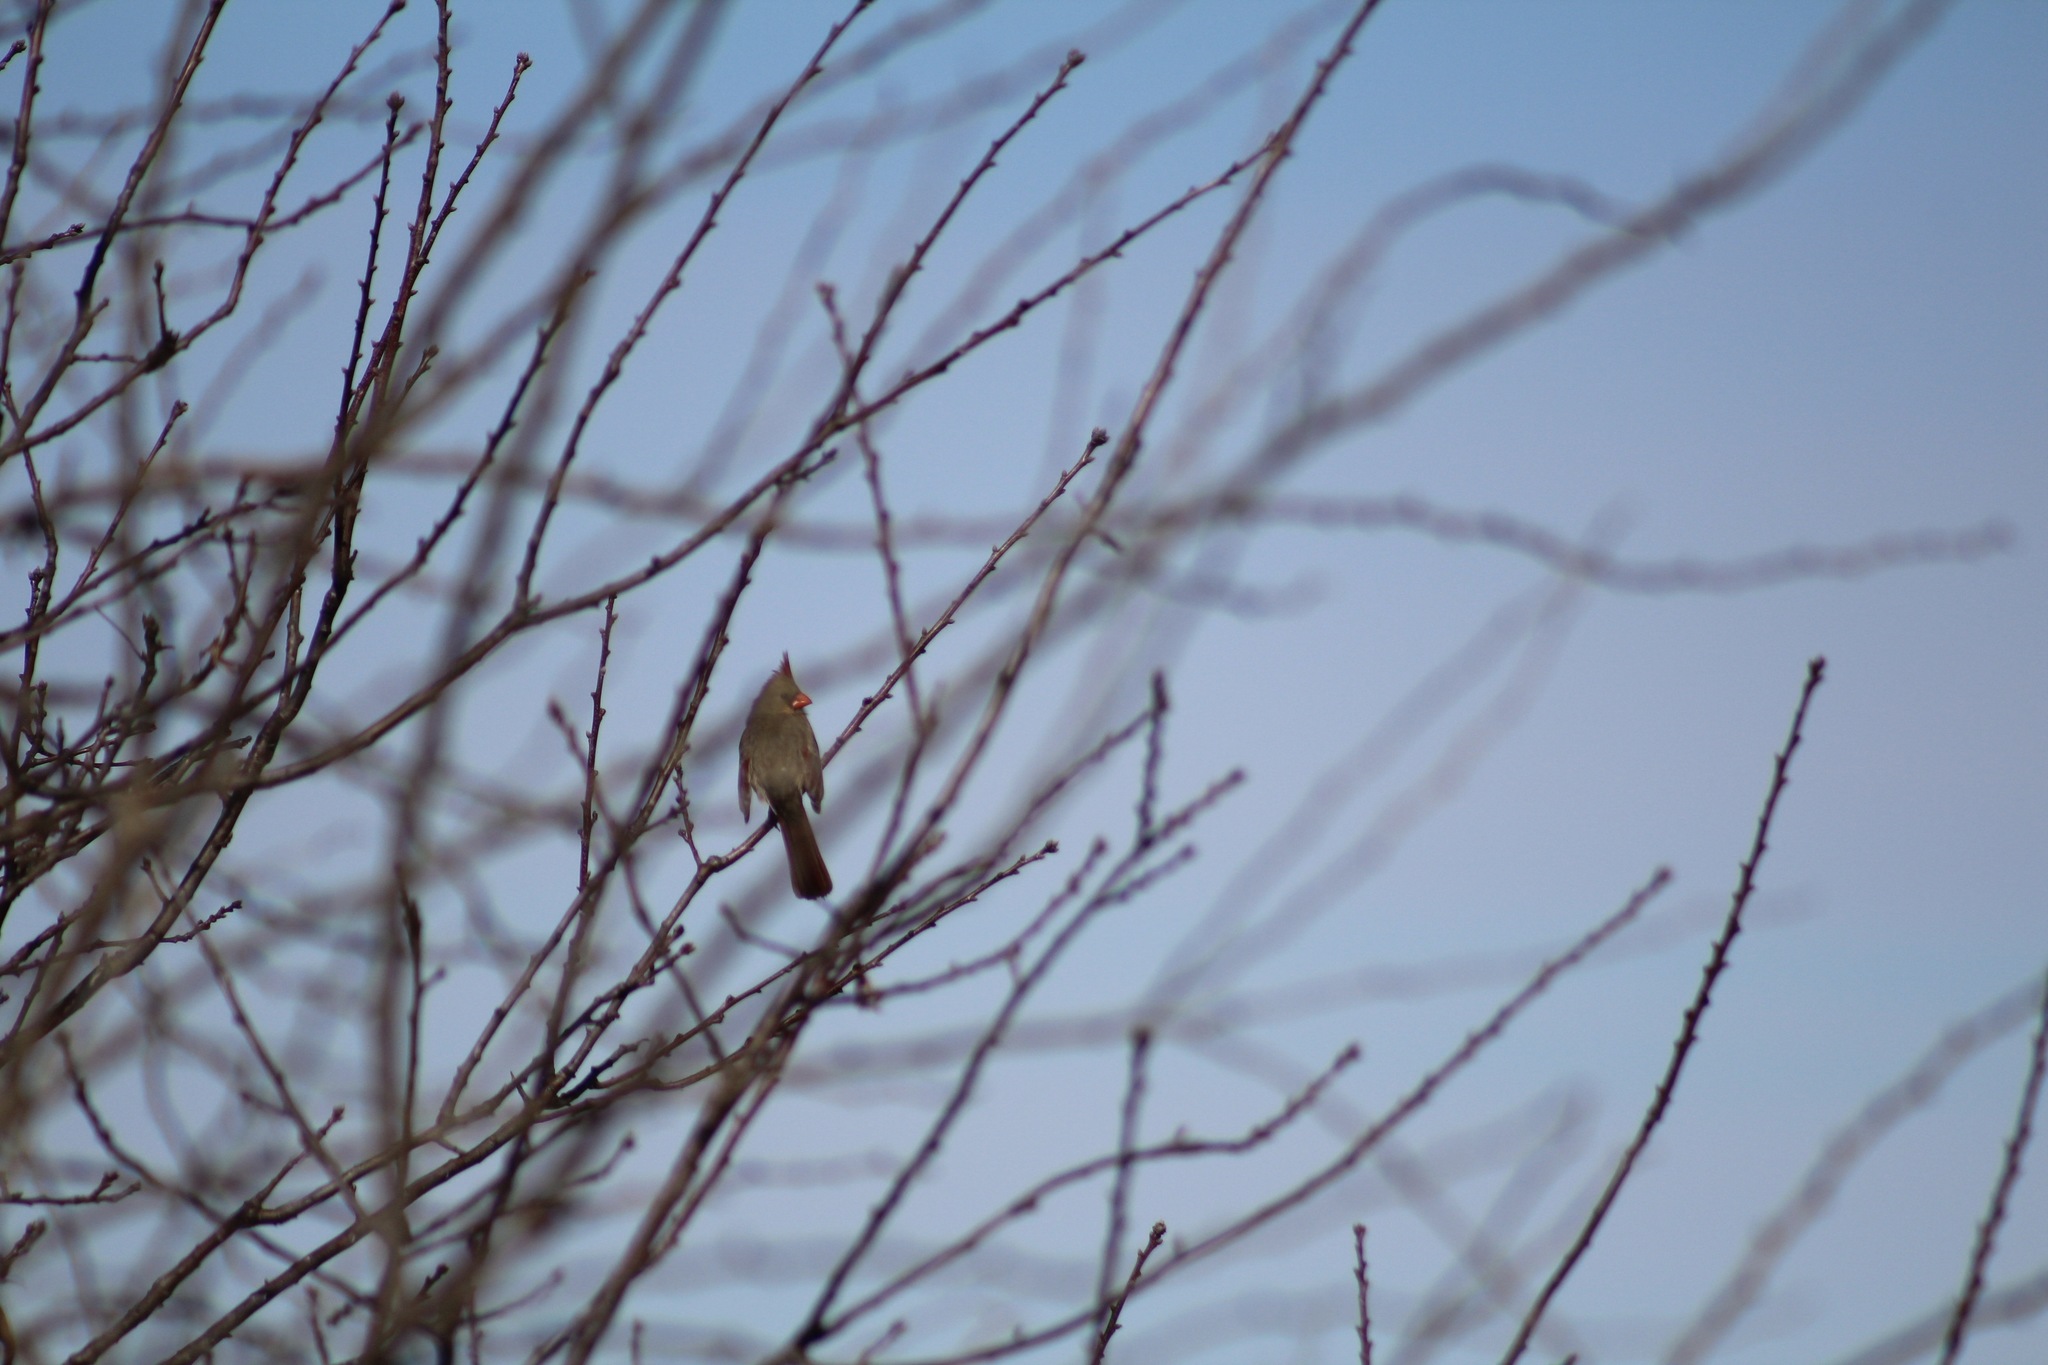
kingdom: Animalia
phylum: Chordata
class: Aves
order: Passeriformes
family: Cardinalidae
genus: Cardinalis
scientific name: Cardinalis cardinalis
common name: Northern cardinal
